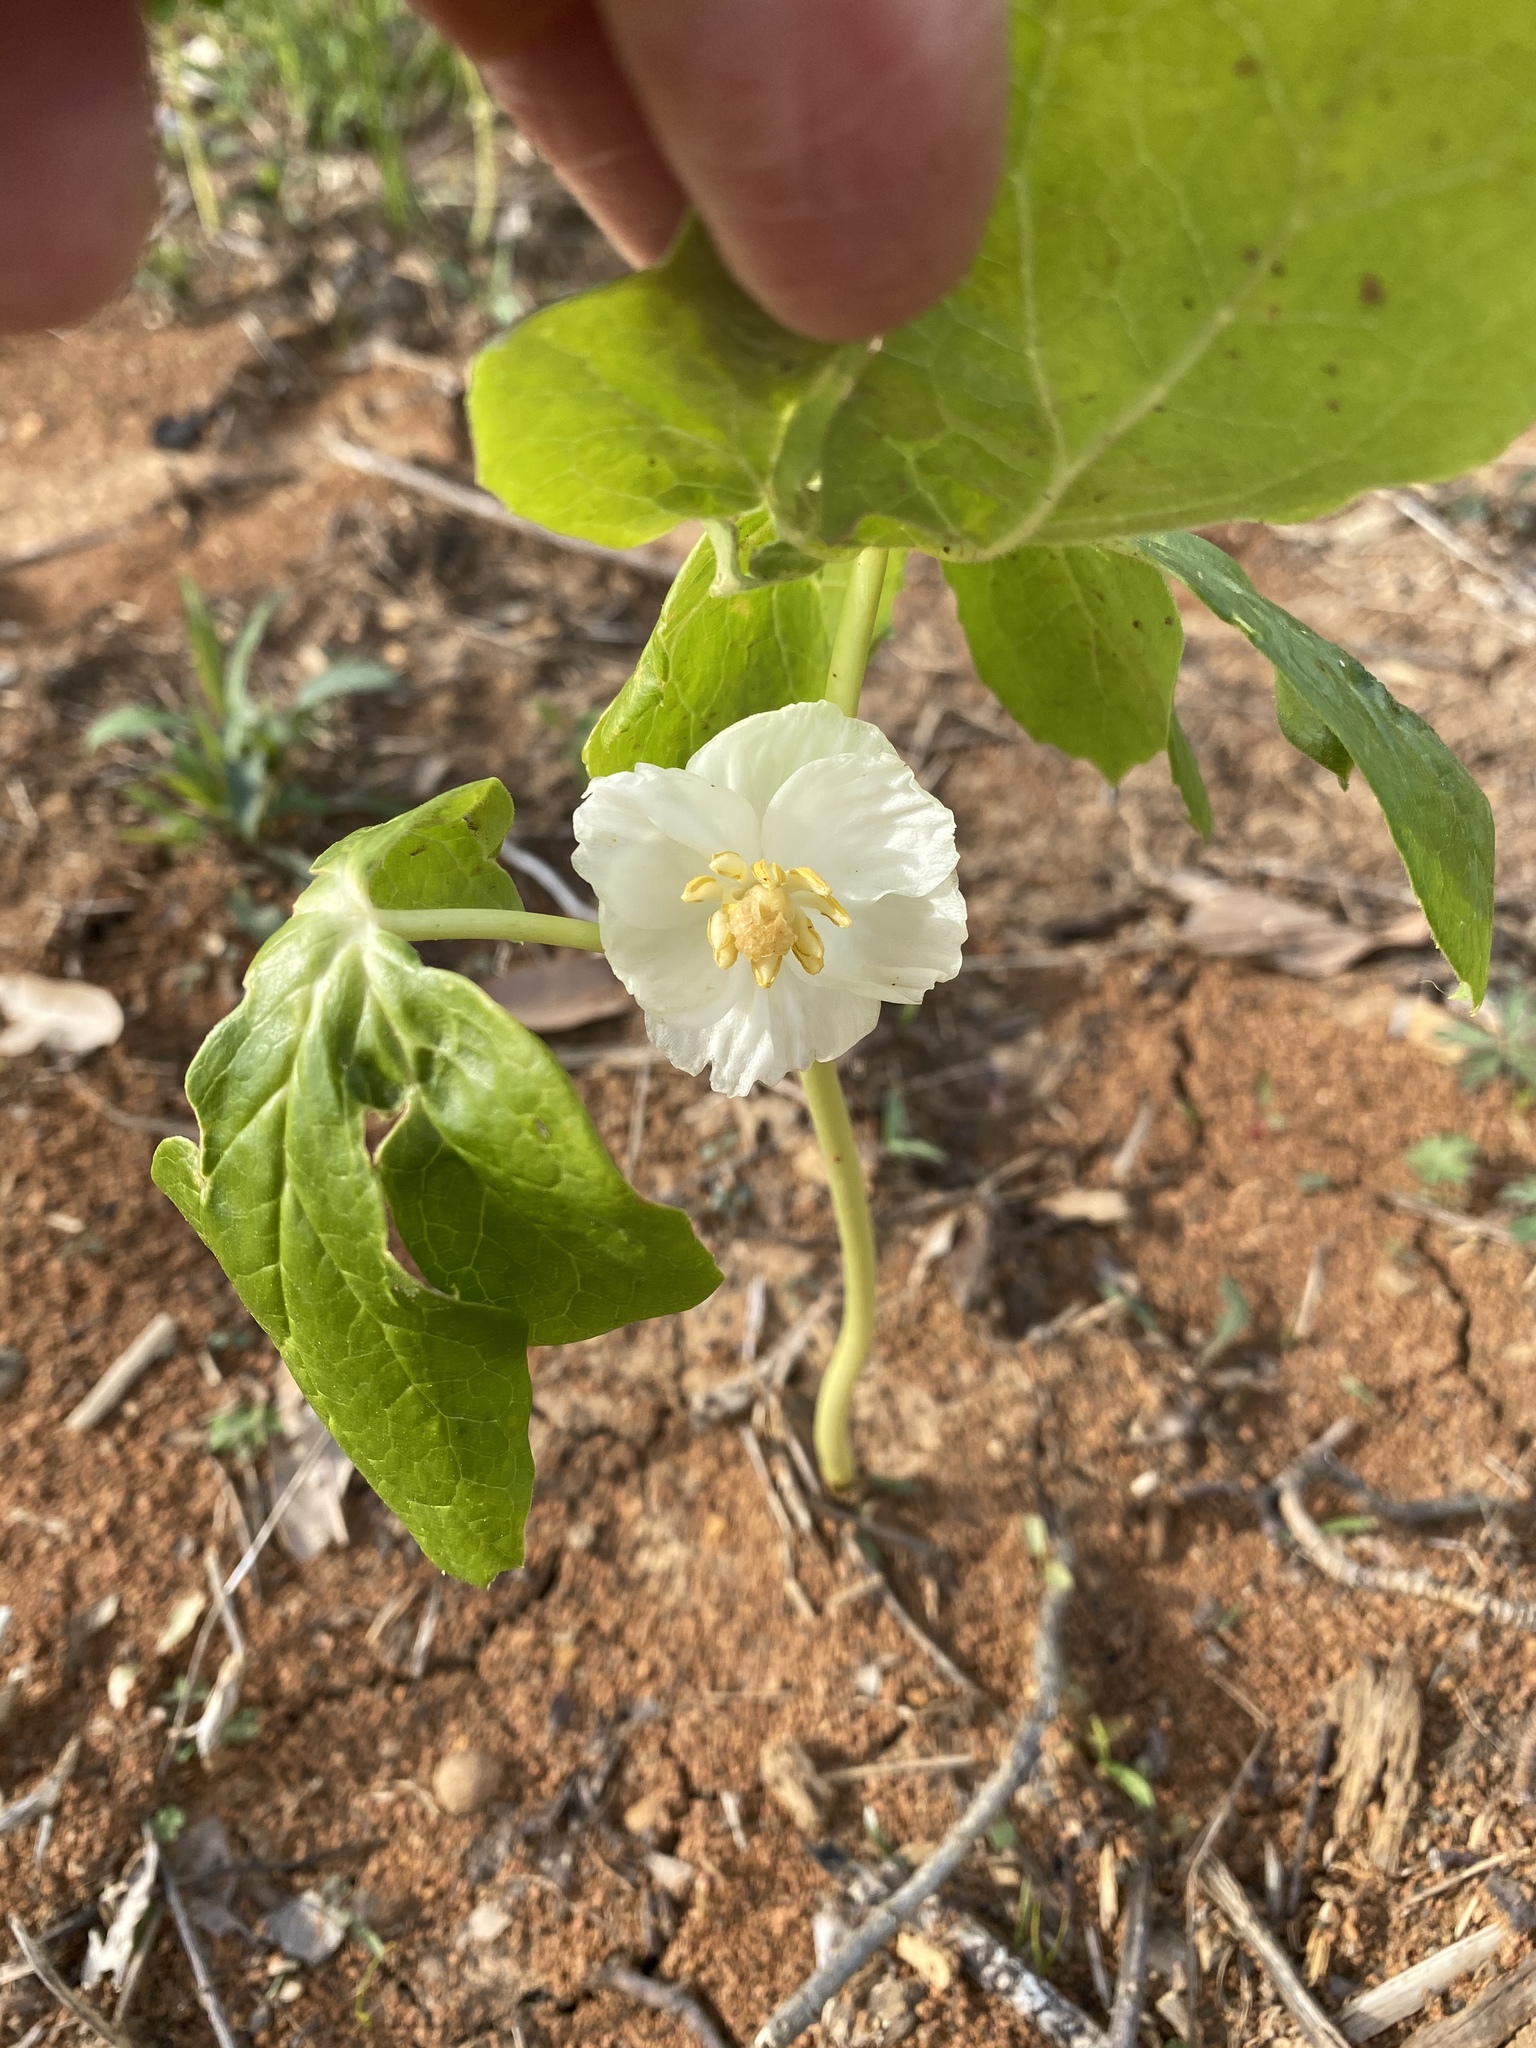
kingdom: Plantae
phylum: Tracheophyta
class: Magnoliopsida
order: Ranunculales
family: Berberidaceae
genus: Podophyllum
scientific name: Podophyllum peltatum
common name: Wild mandrake
